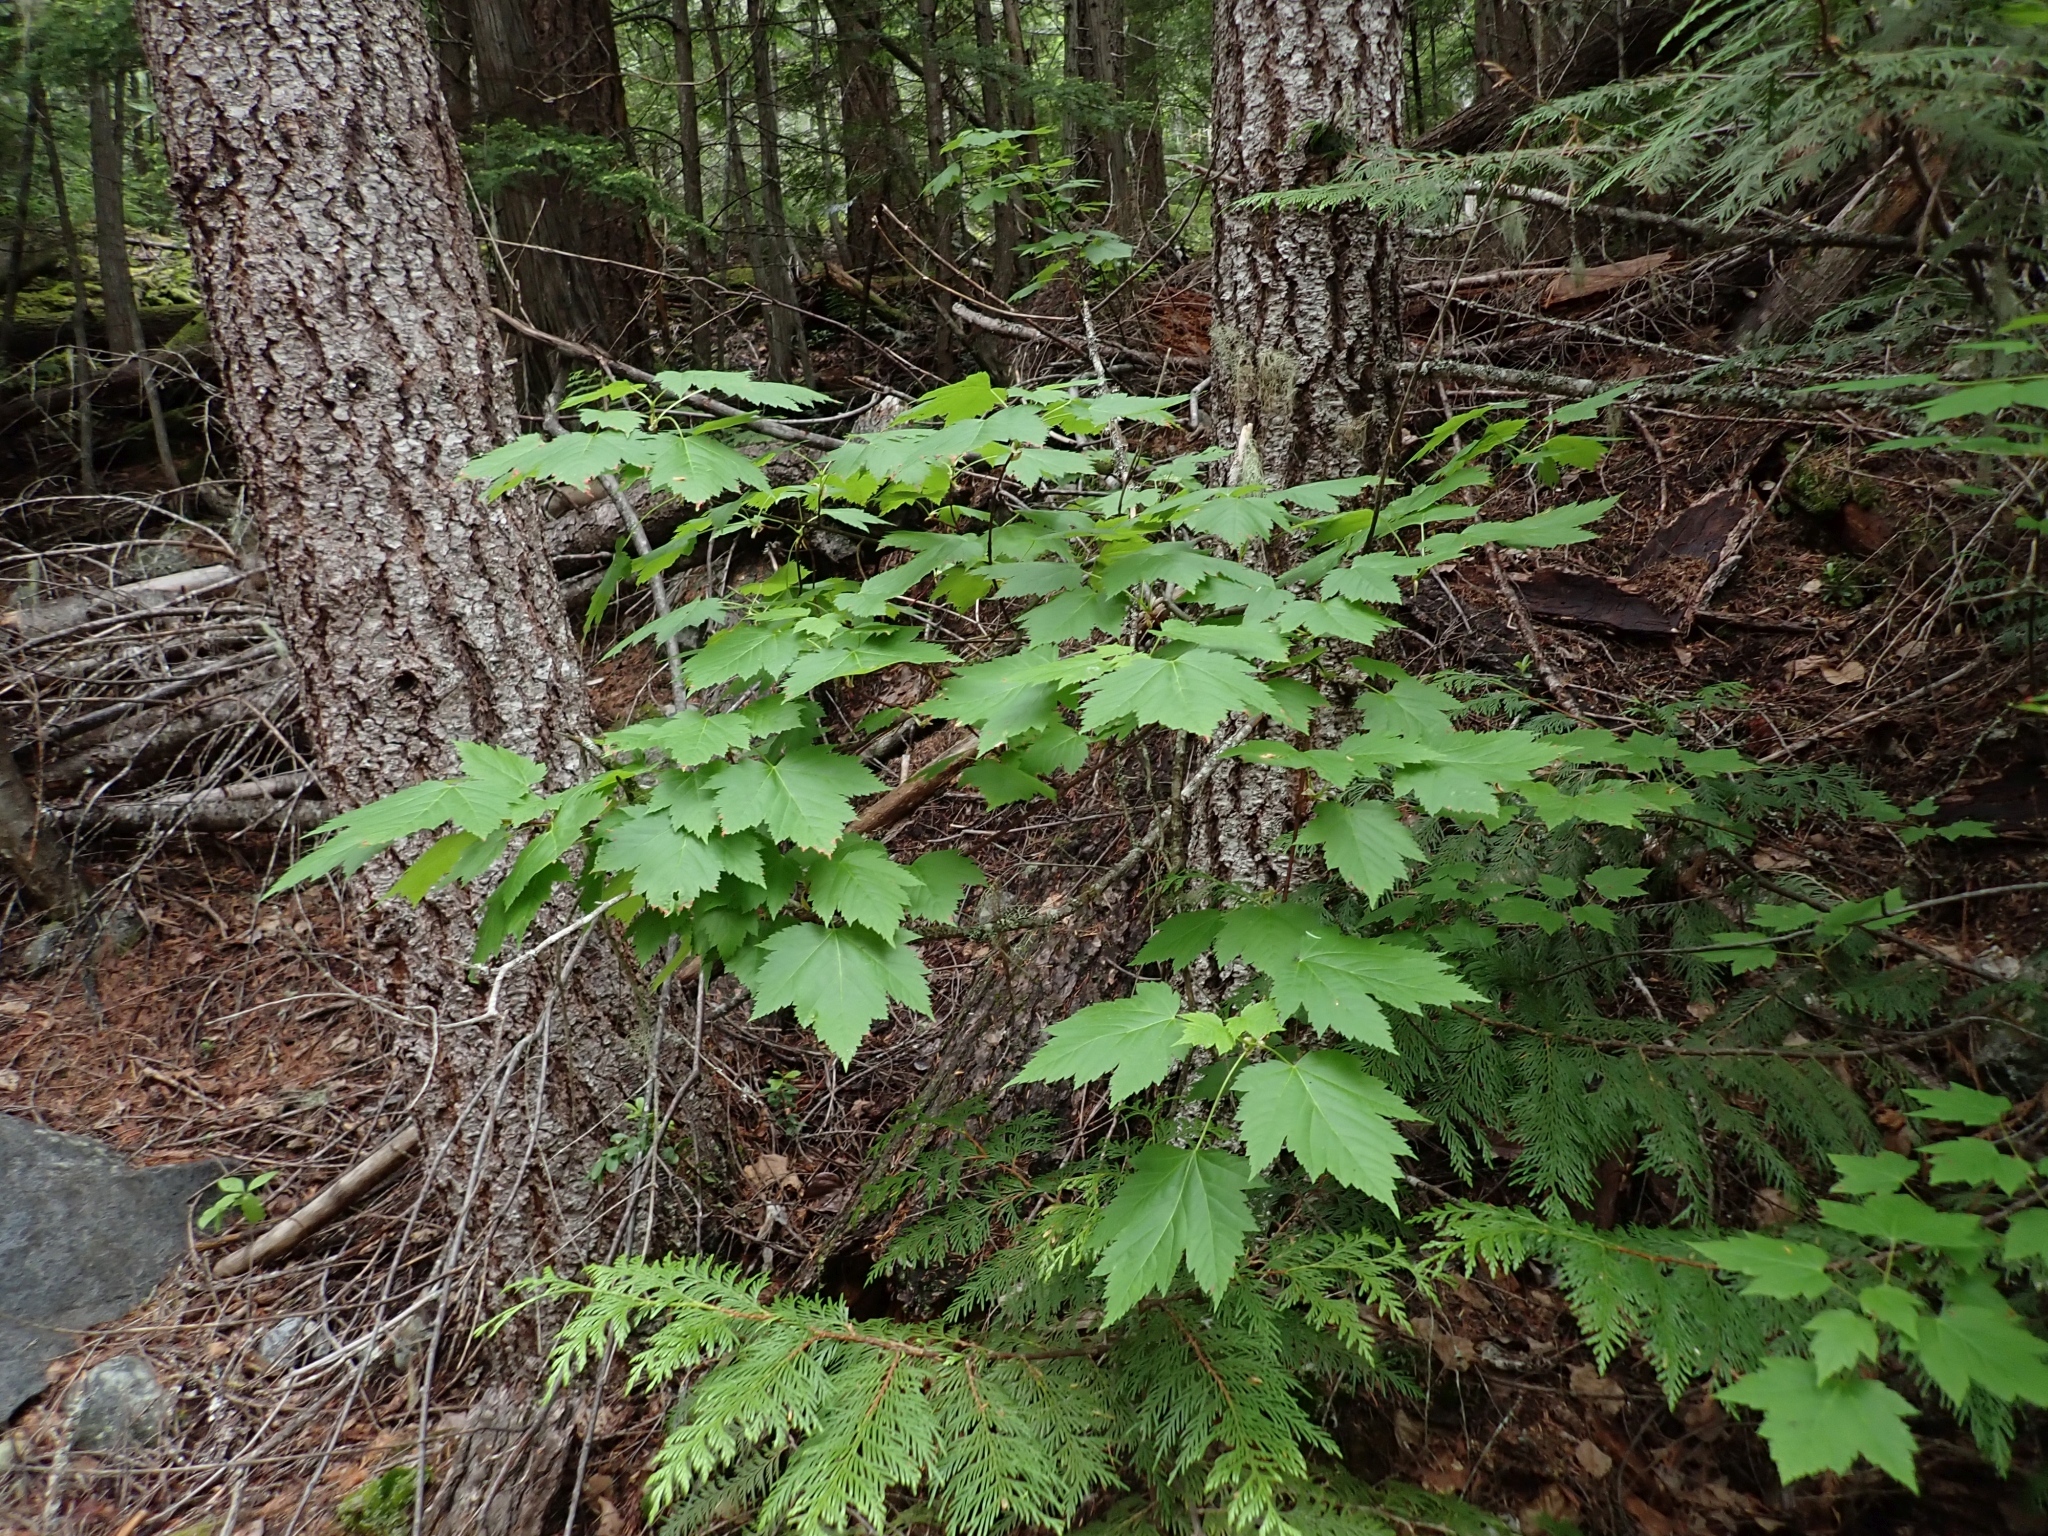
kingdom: Plantae
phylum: Tracheophyta
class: Magnoliopsida
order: Sapindales
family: Sapindaceae
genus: Acer
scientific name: Acer glabrum
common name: Rocky mountain maple
